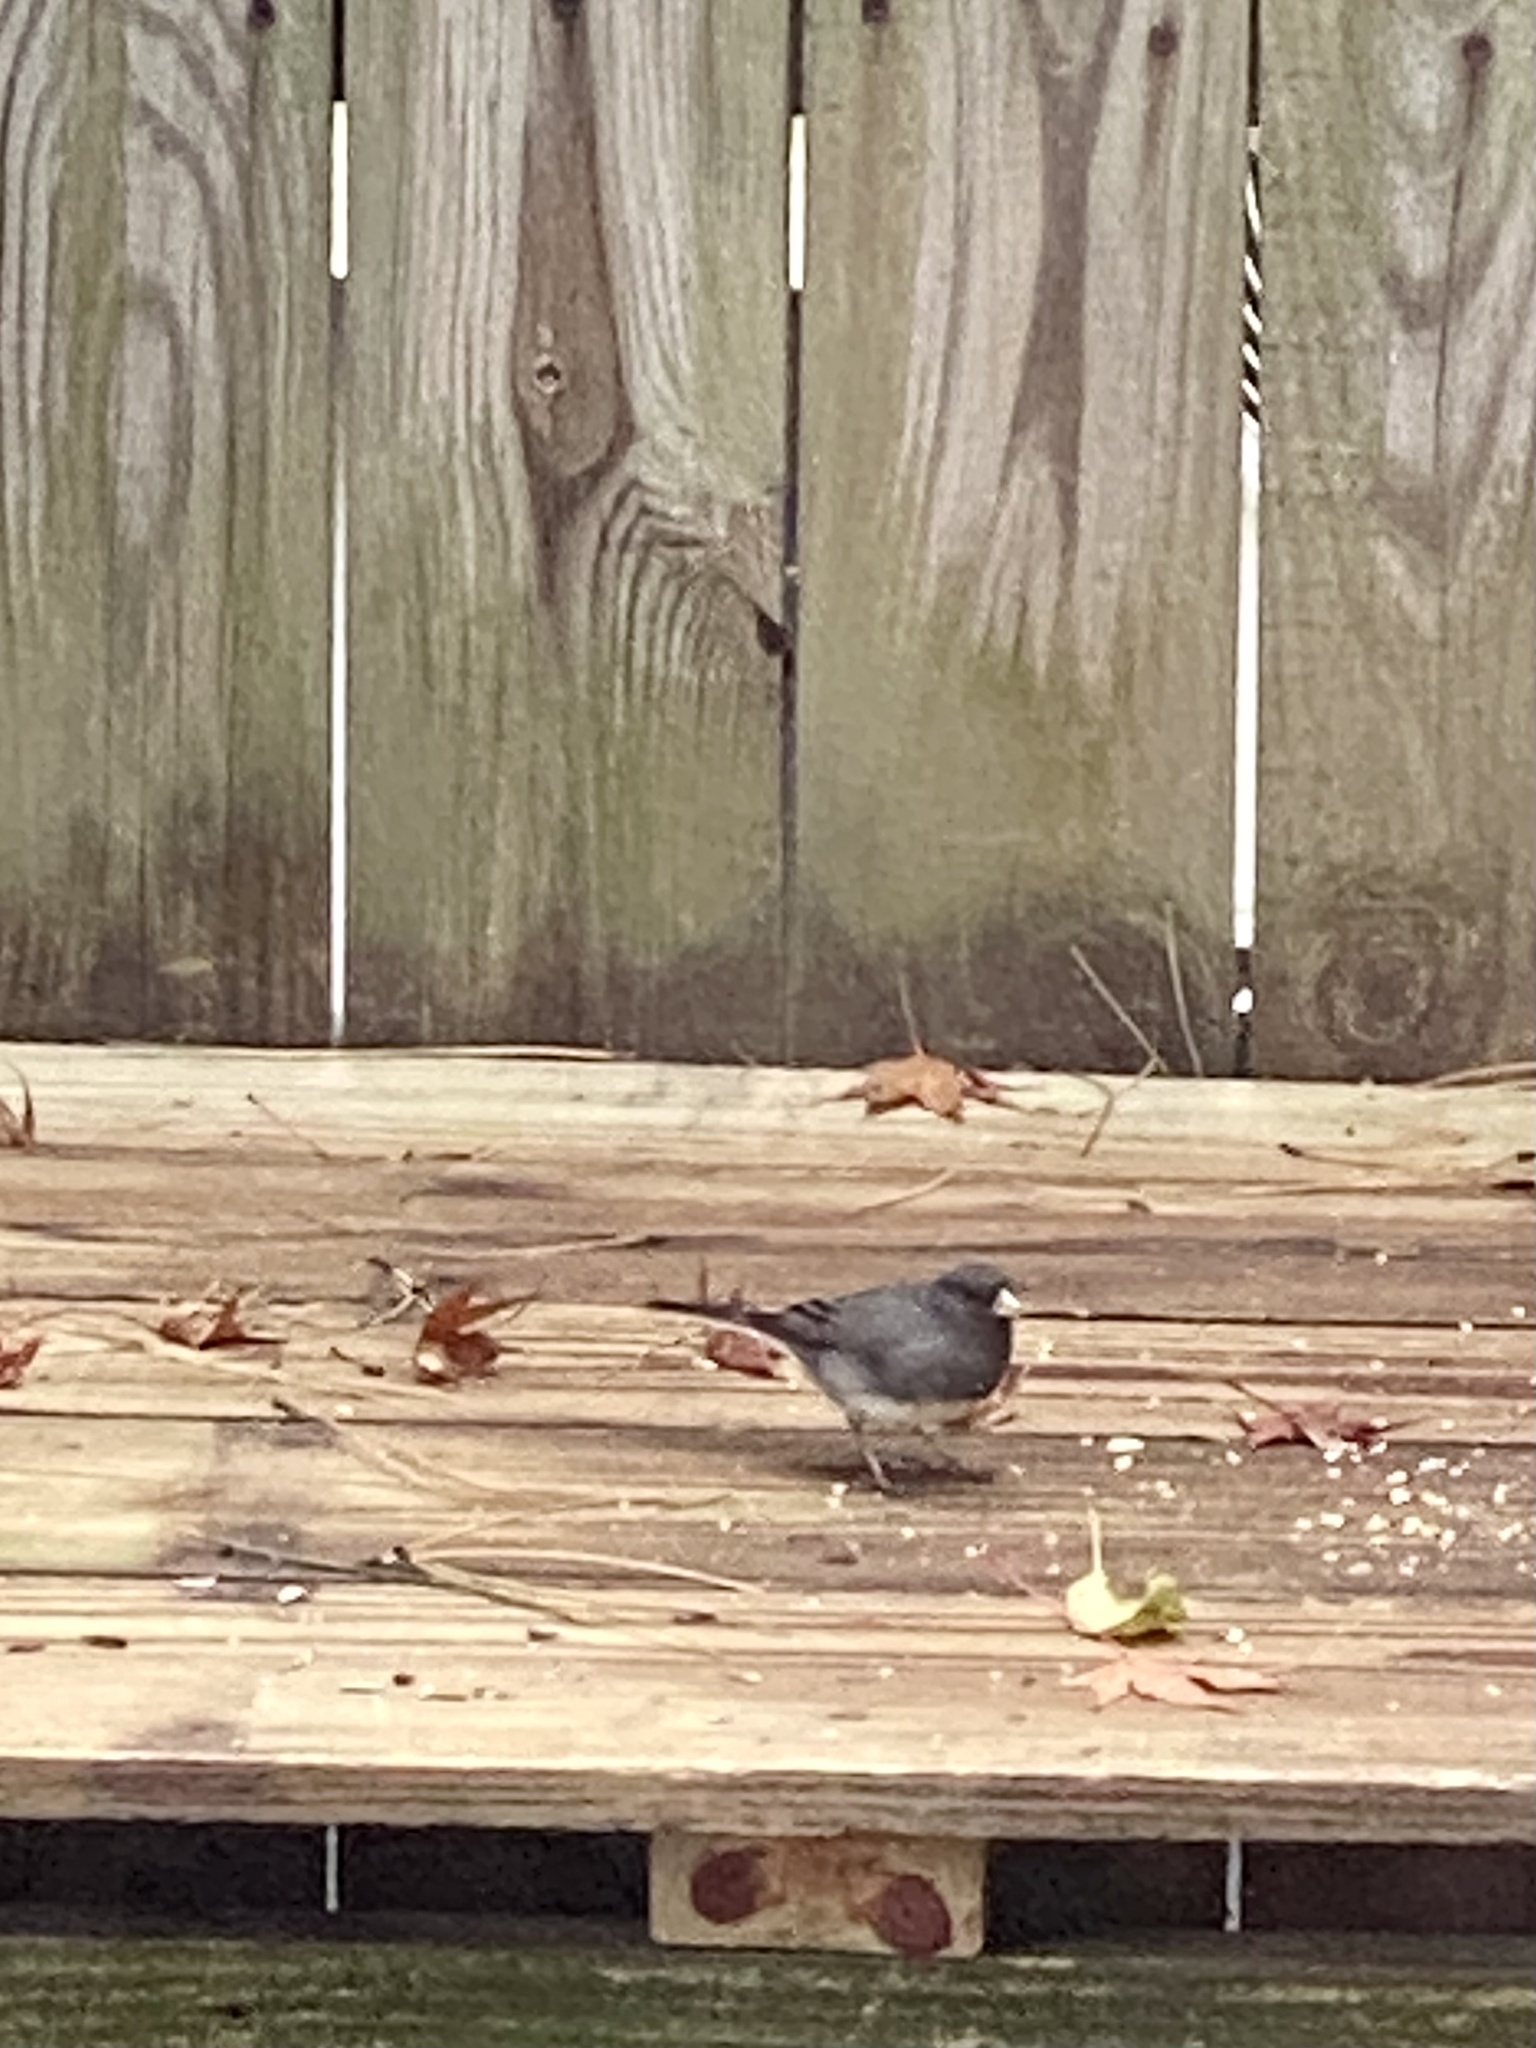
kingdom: Animalia
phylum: Chordata
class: Aves
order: Passeriformes
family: Passerellidae
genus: Junco
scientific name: Junco hyemalis
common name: Dark-eyed junco
